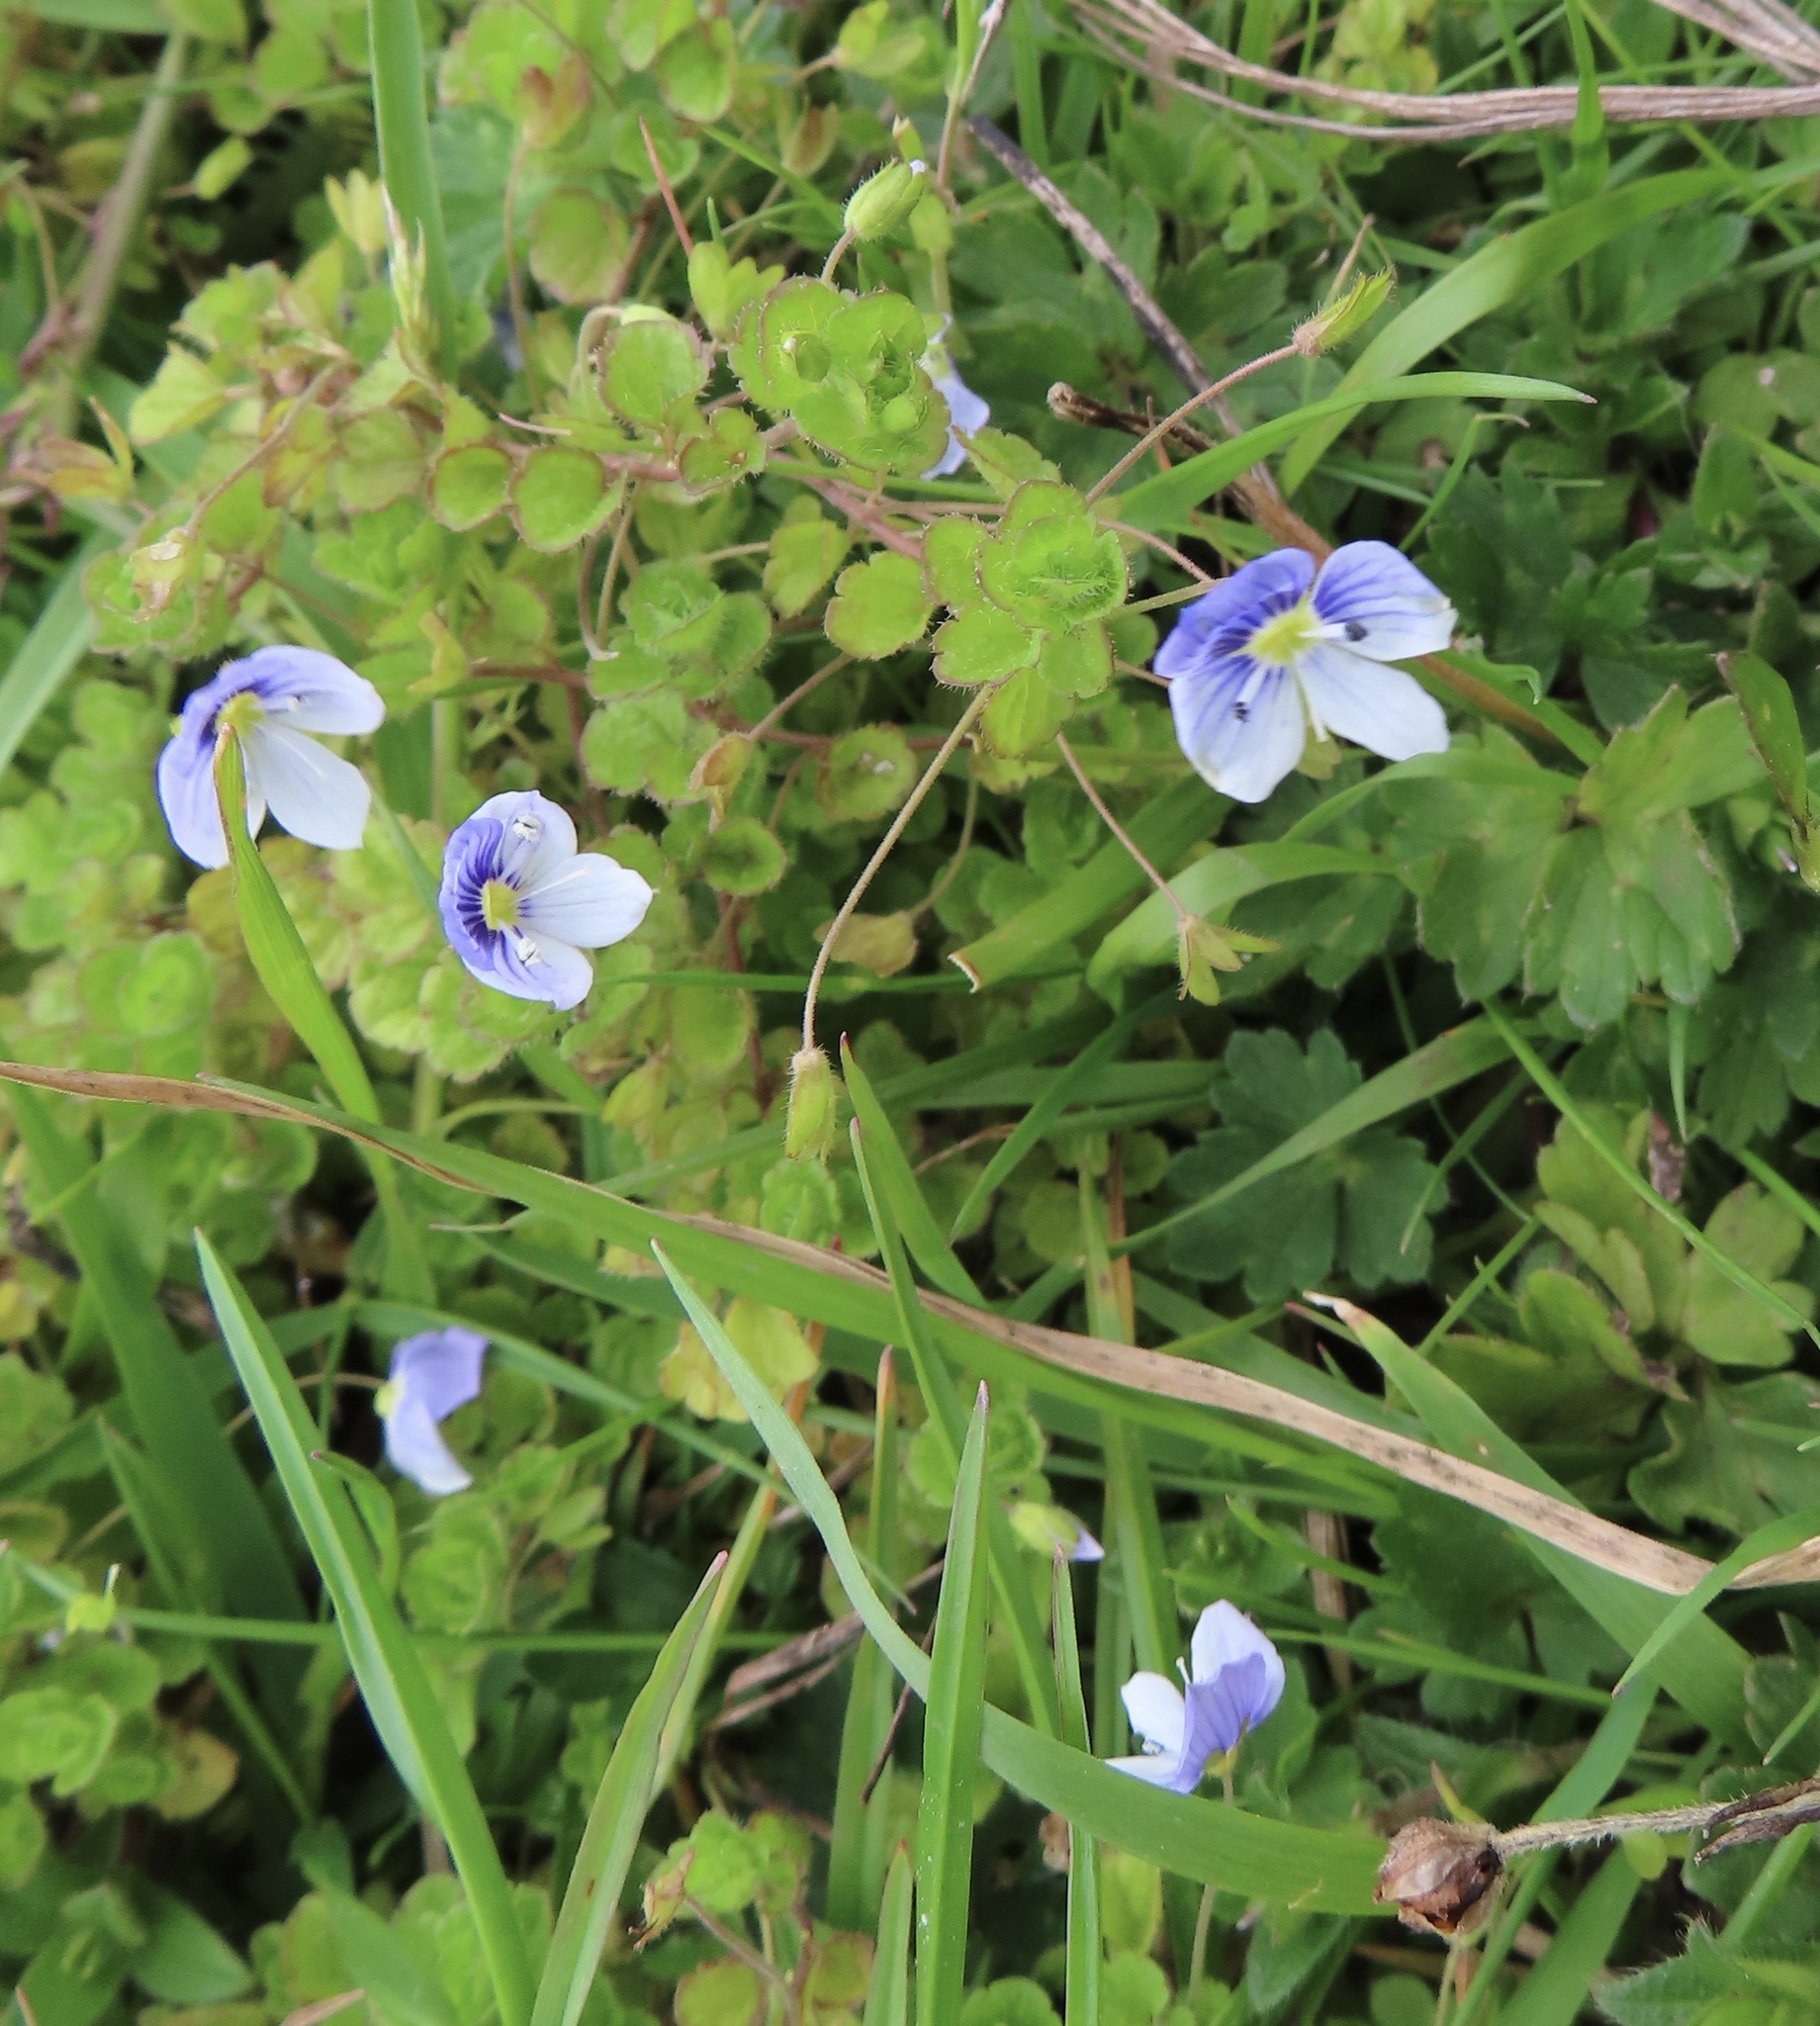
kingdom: Plantae
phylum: Tracheophyta
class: Magnoliopsida
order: Lamiales
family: Plantaginaceae
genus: Veronica
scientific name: Veronica filiformis
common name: Slender speedwell
